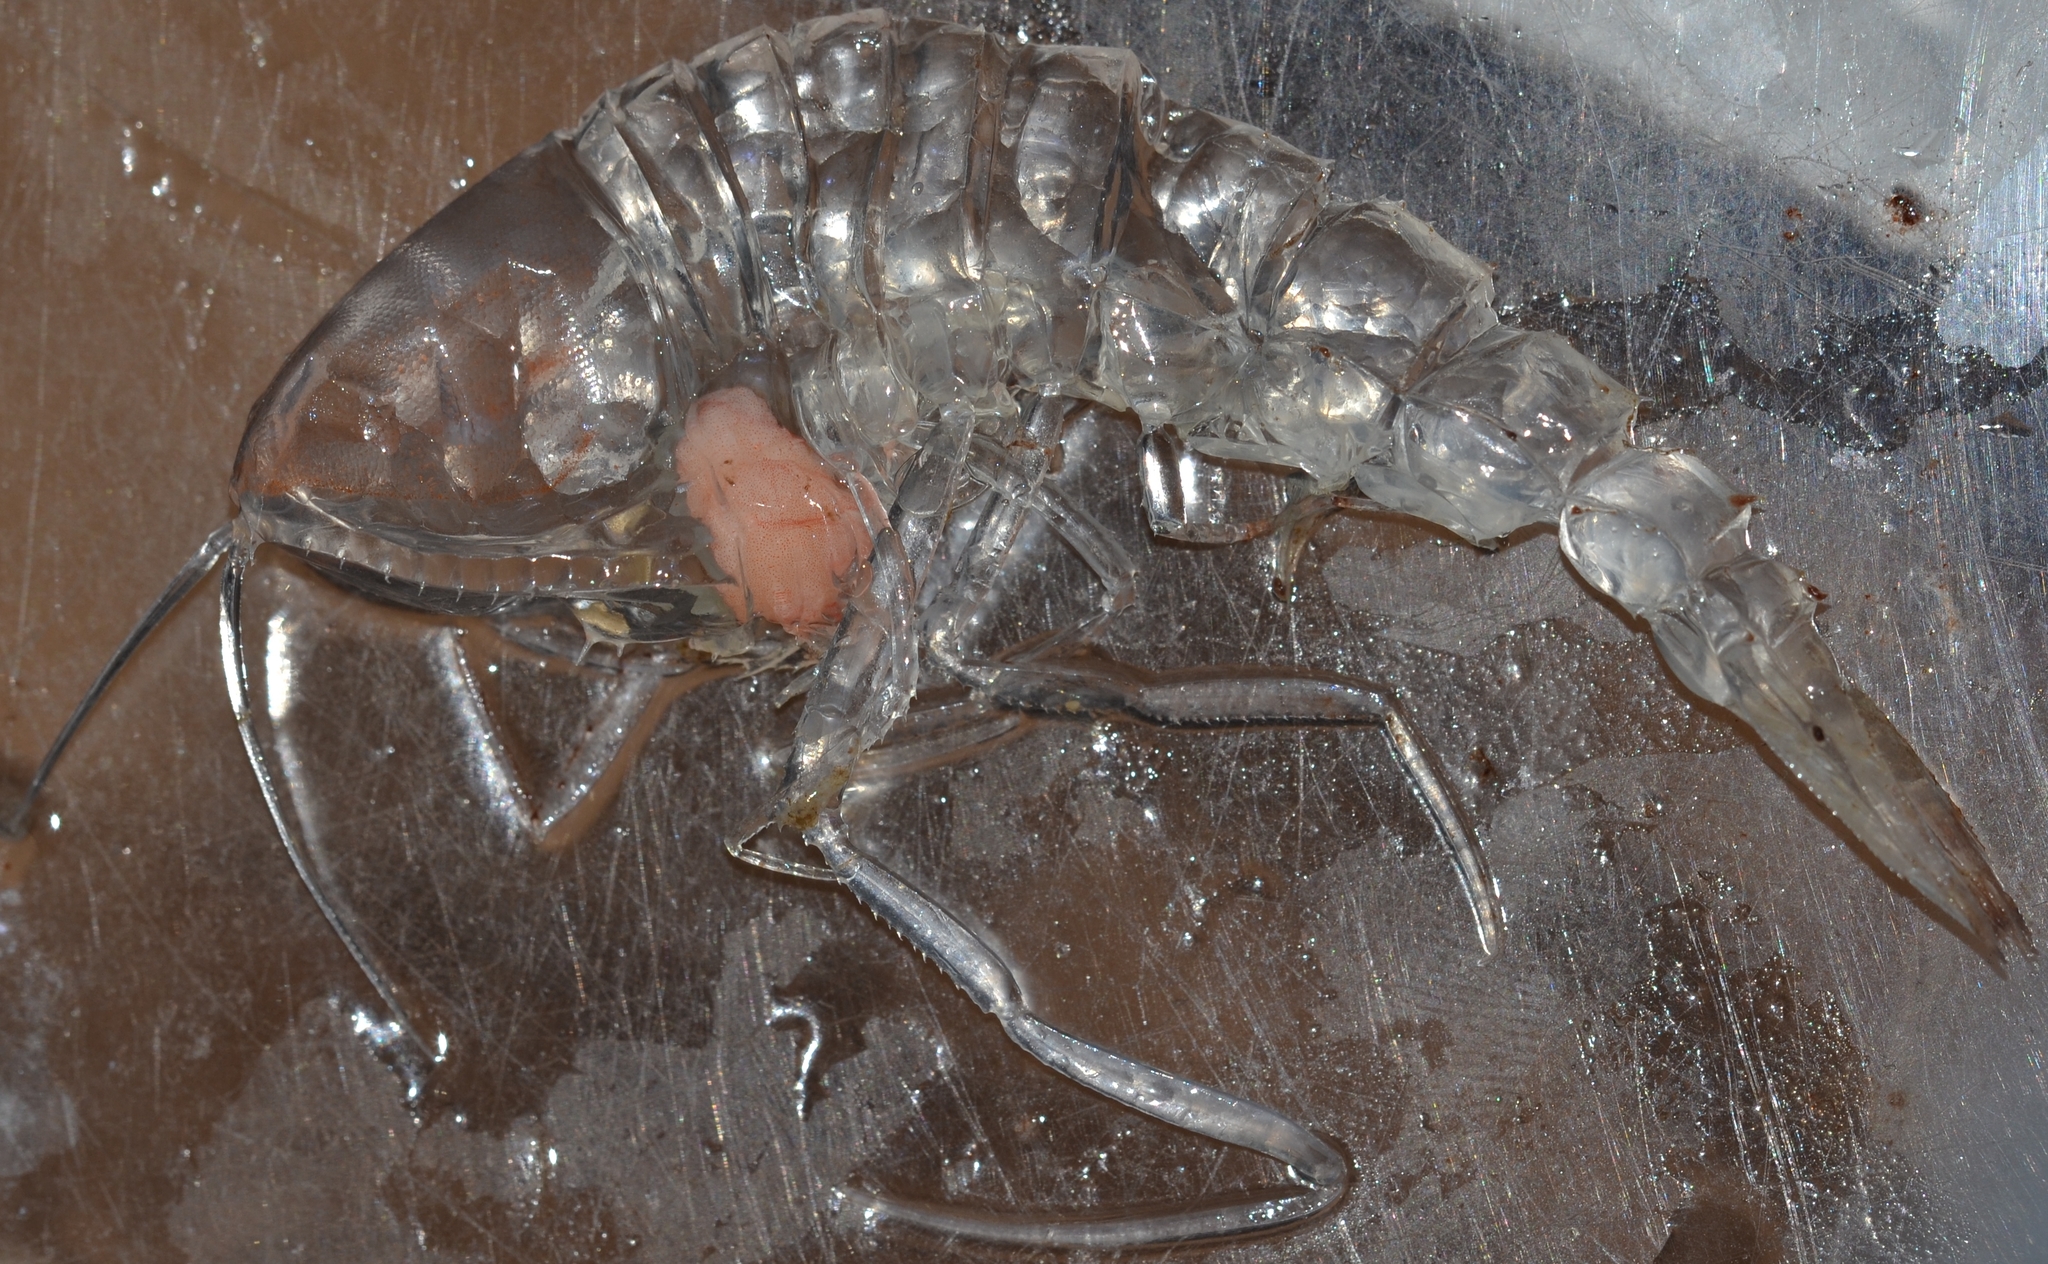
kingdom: Animalia
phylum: Arthropoda
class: Malacostraca
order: Amphipoda
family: Cystisomatidae
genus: Cystisoma
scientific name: Cystisoma magna
